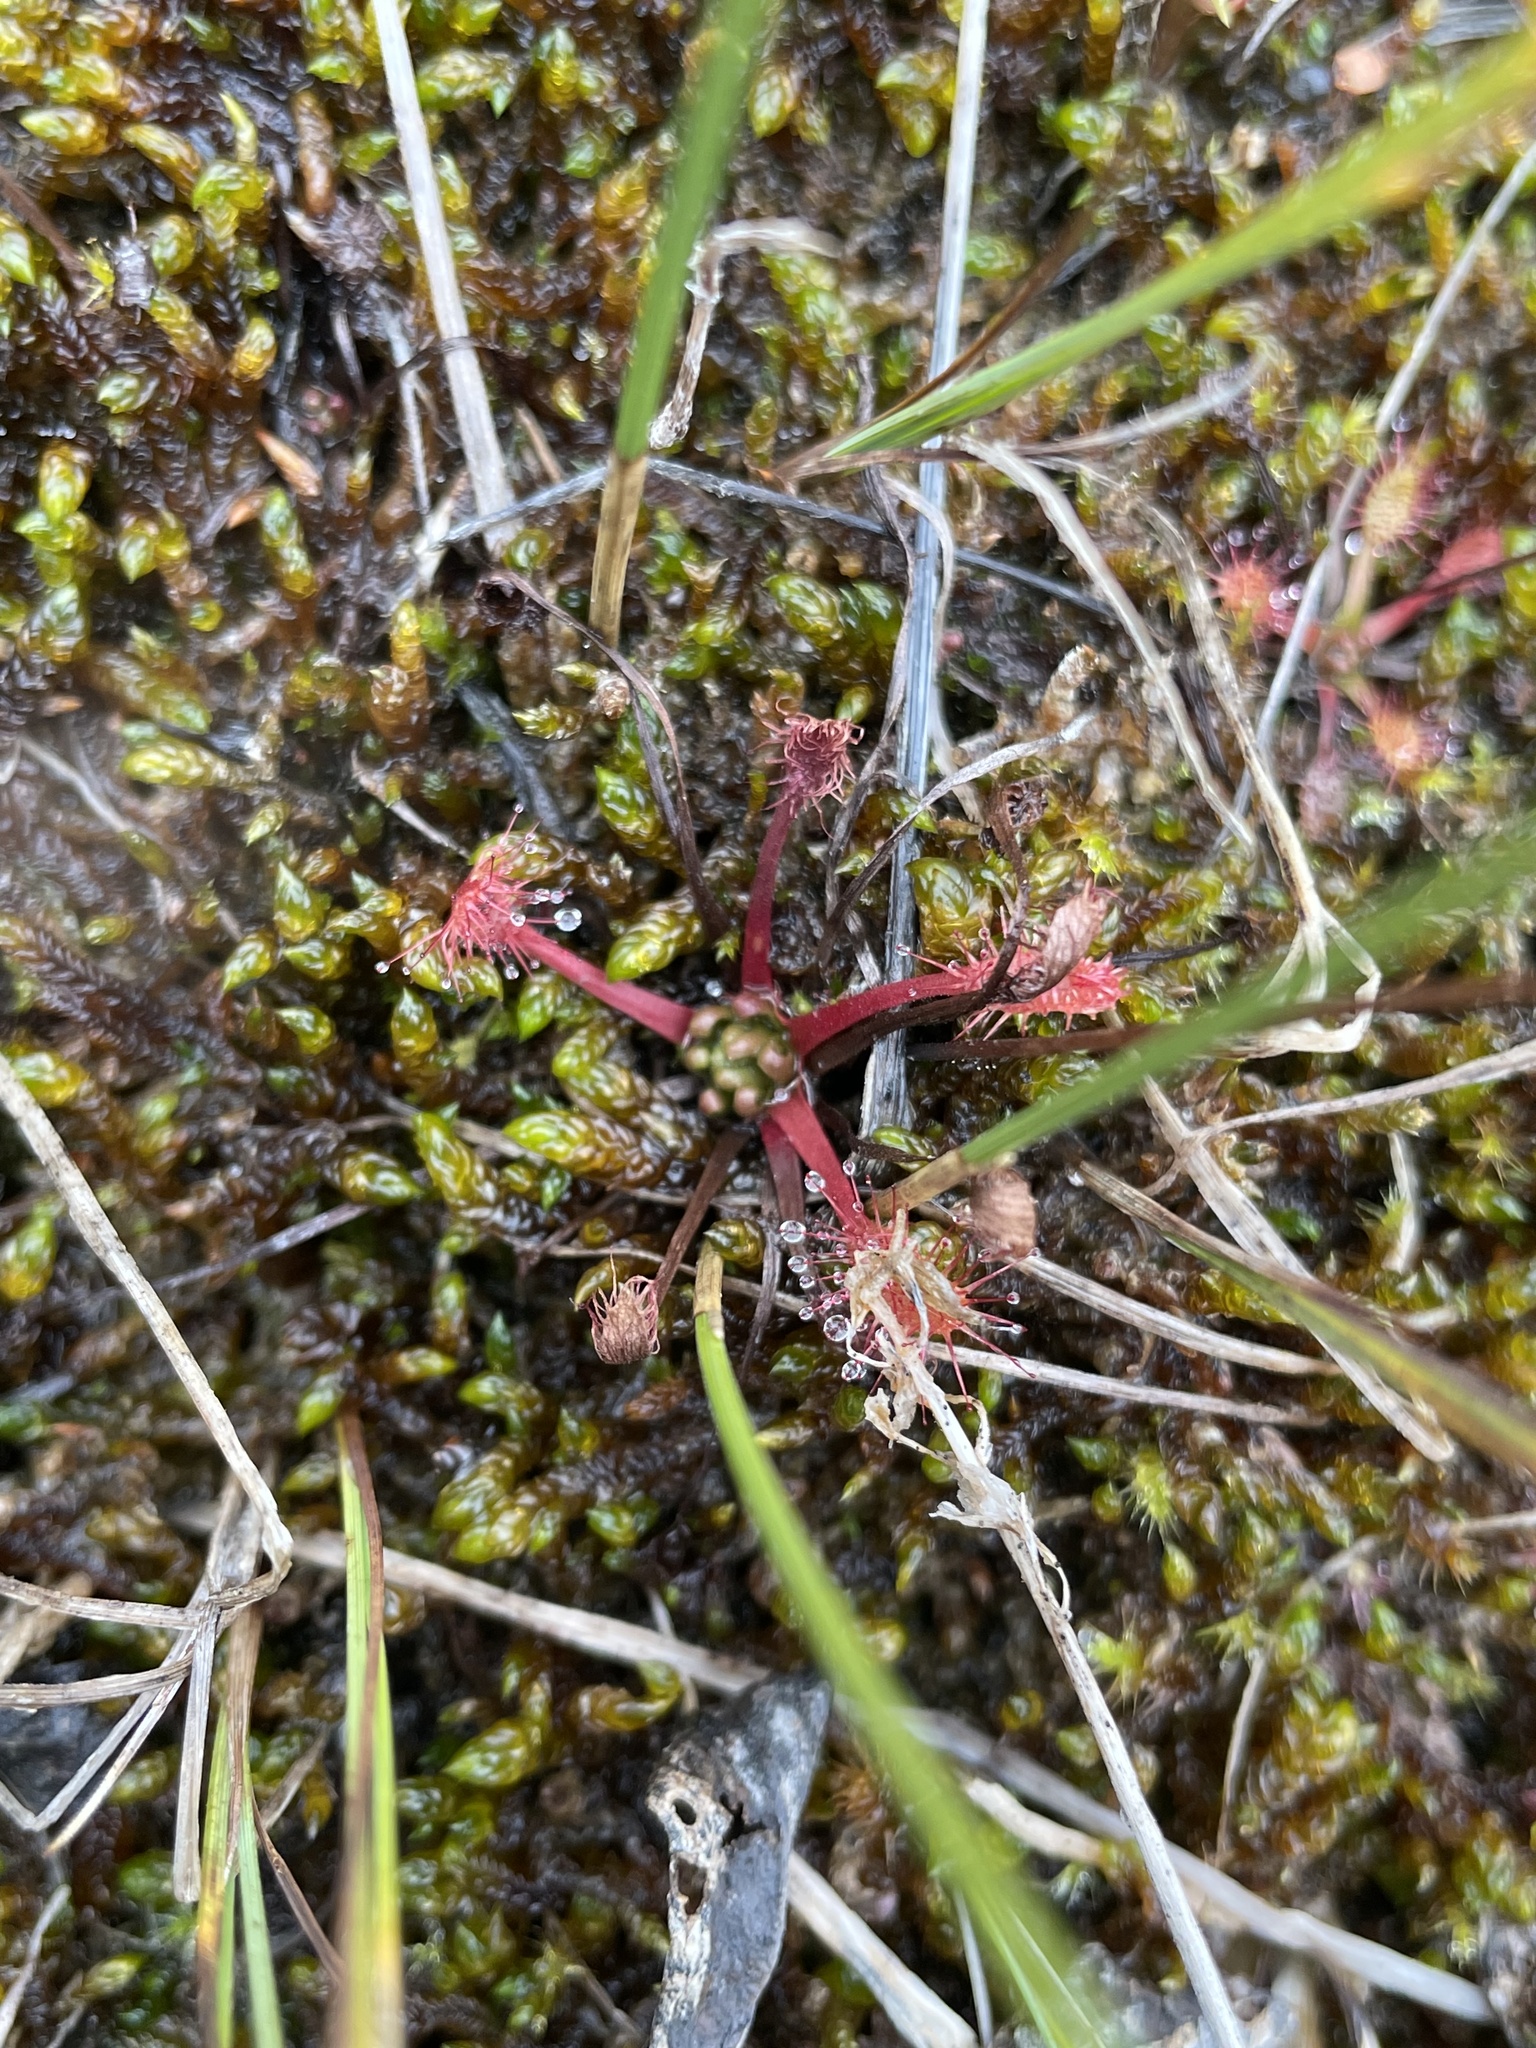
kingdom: Plantae
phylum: Tracheophyta
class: Magnoliopsida
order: Caryophyllales
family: Droseraceae
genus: Drosera
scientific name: Drosera anglica
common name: Great sundew
